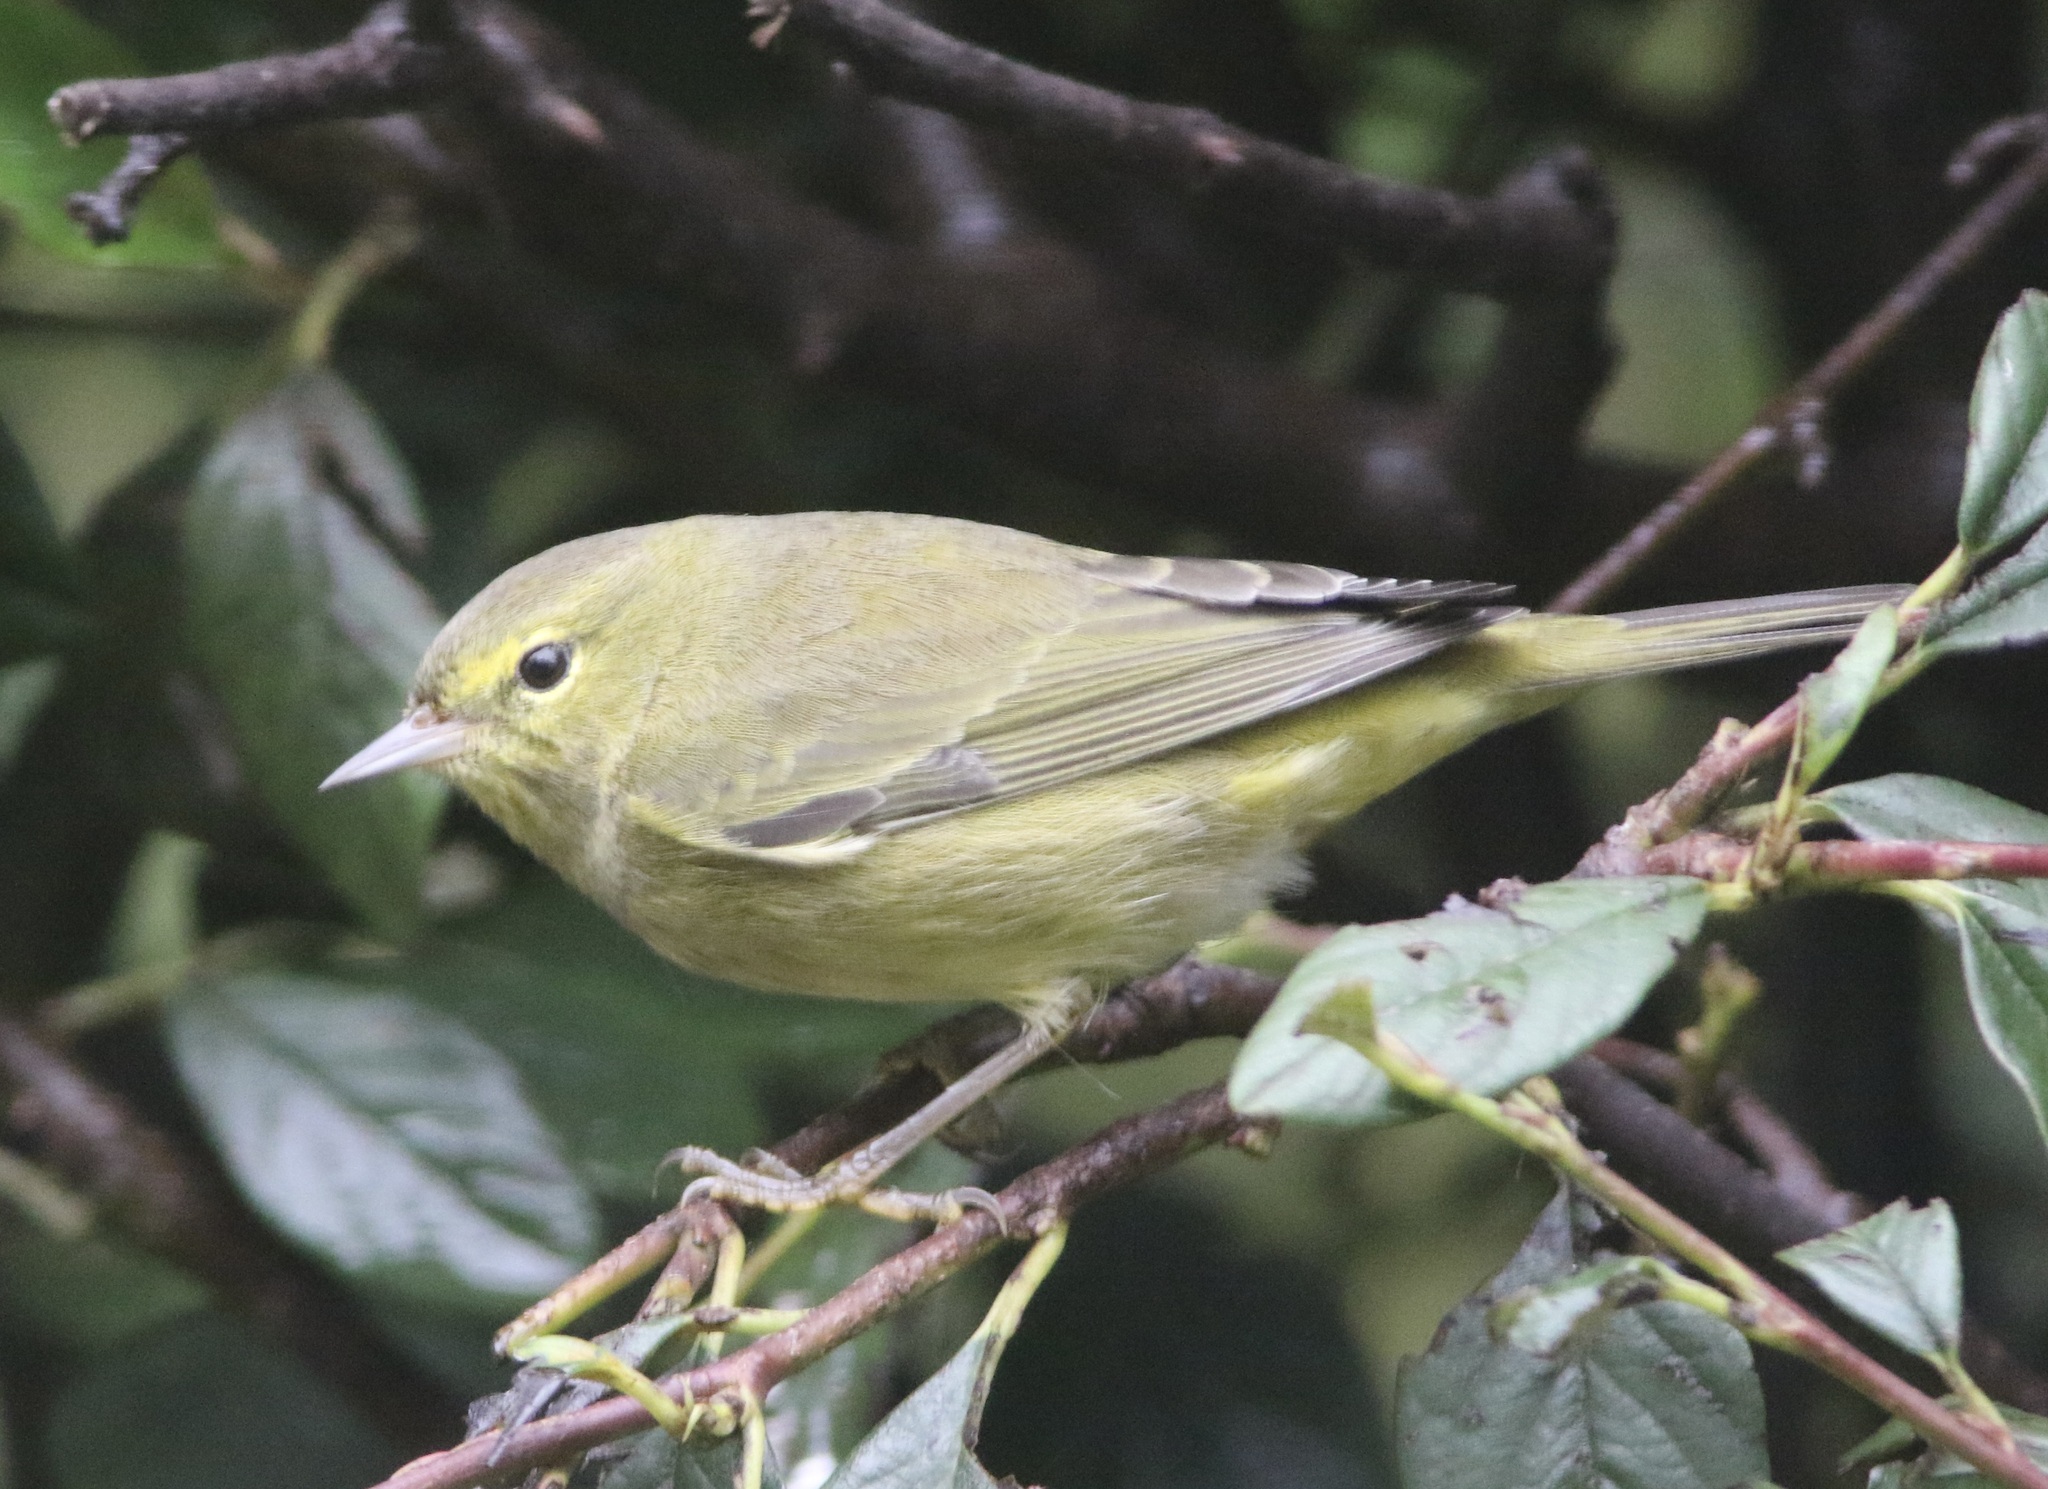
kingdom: Animalia
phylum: Chordata
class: Aves
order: Passeriformes
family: Parulidae
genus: Leiothlypis
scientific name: Leiothlypis celata
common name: Orange-crowned warbler
